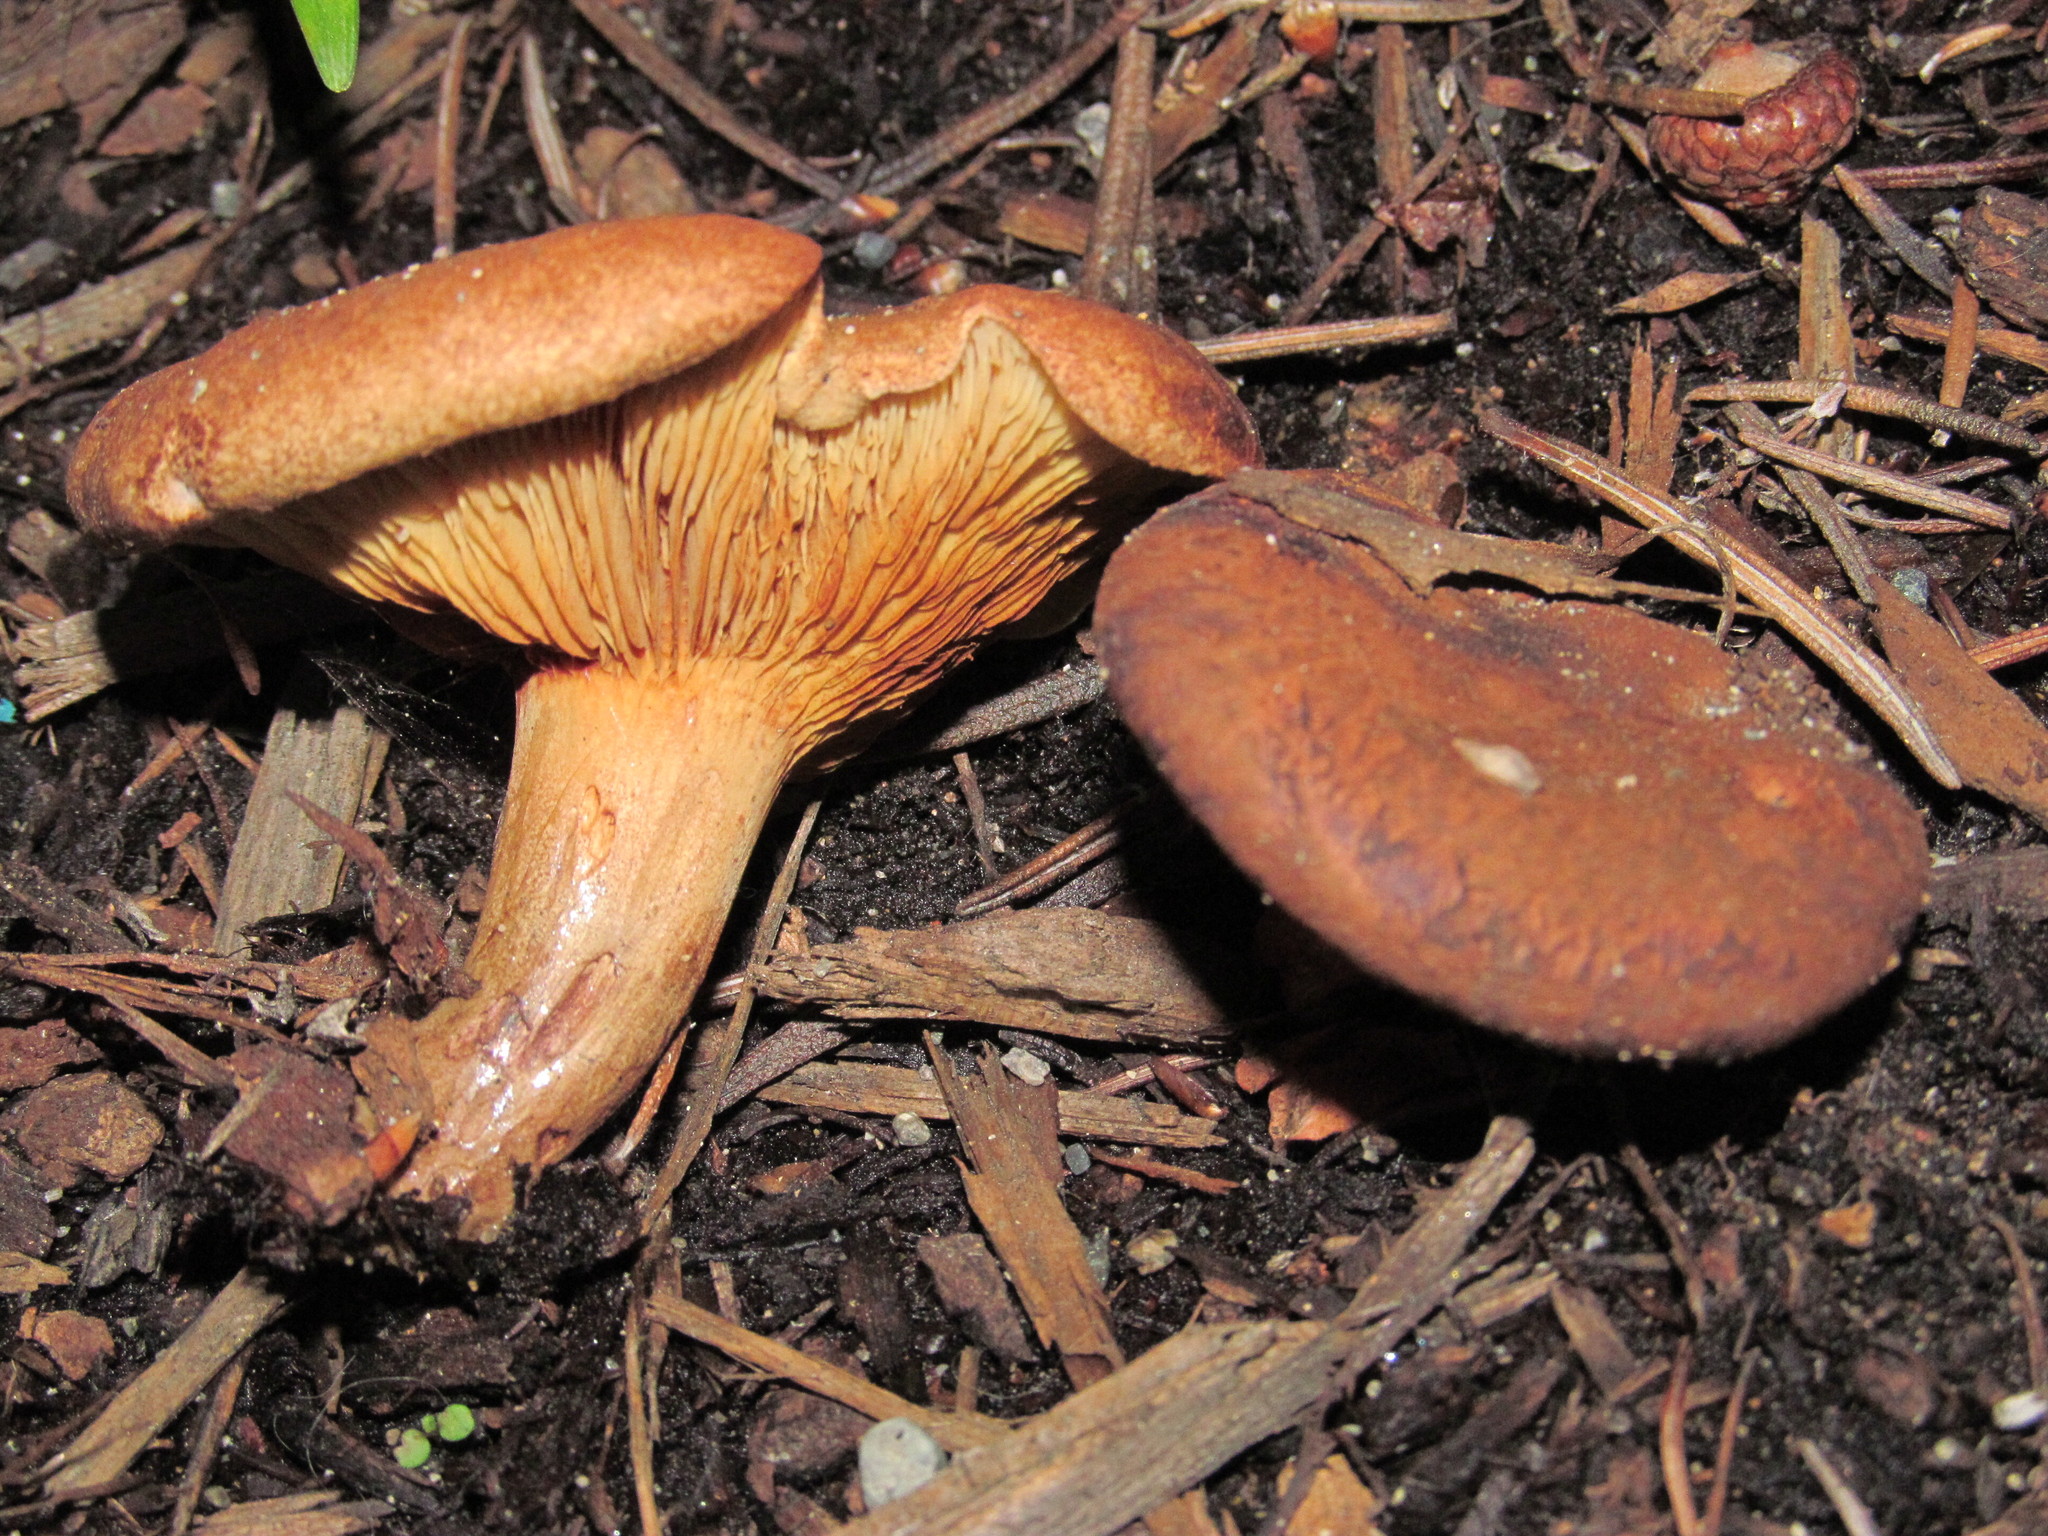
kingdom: Fungi
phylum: Basidiomycota
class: Agaricomycetes
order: Boletales
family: Paxillaceae
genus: Paxillus
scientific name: Paxillus involutus
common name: Brown roll rim
